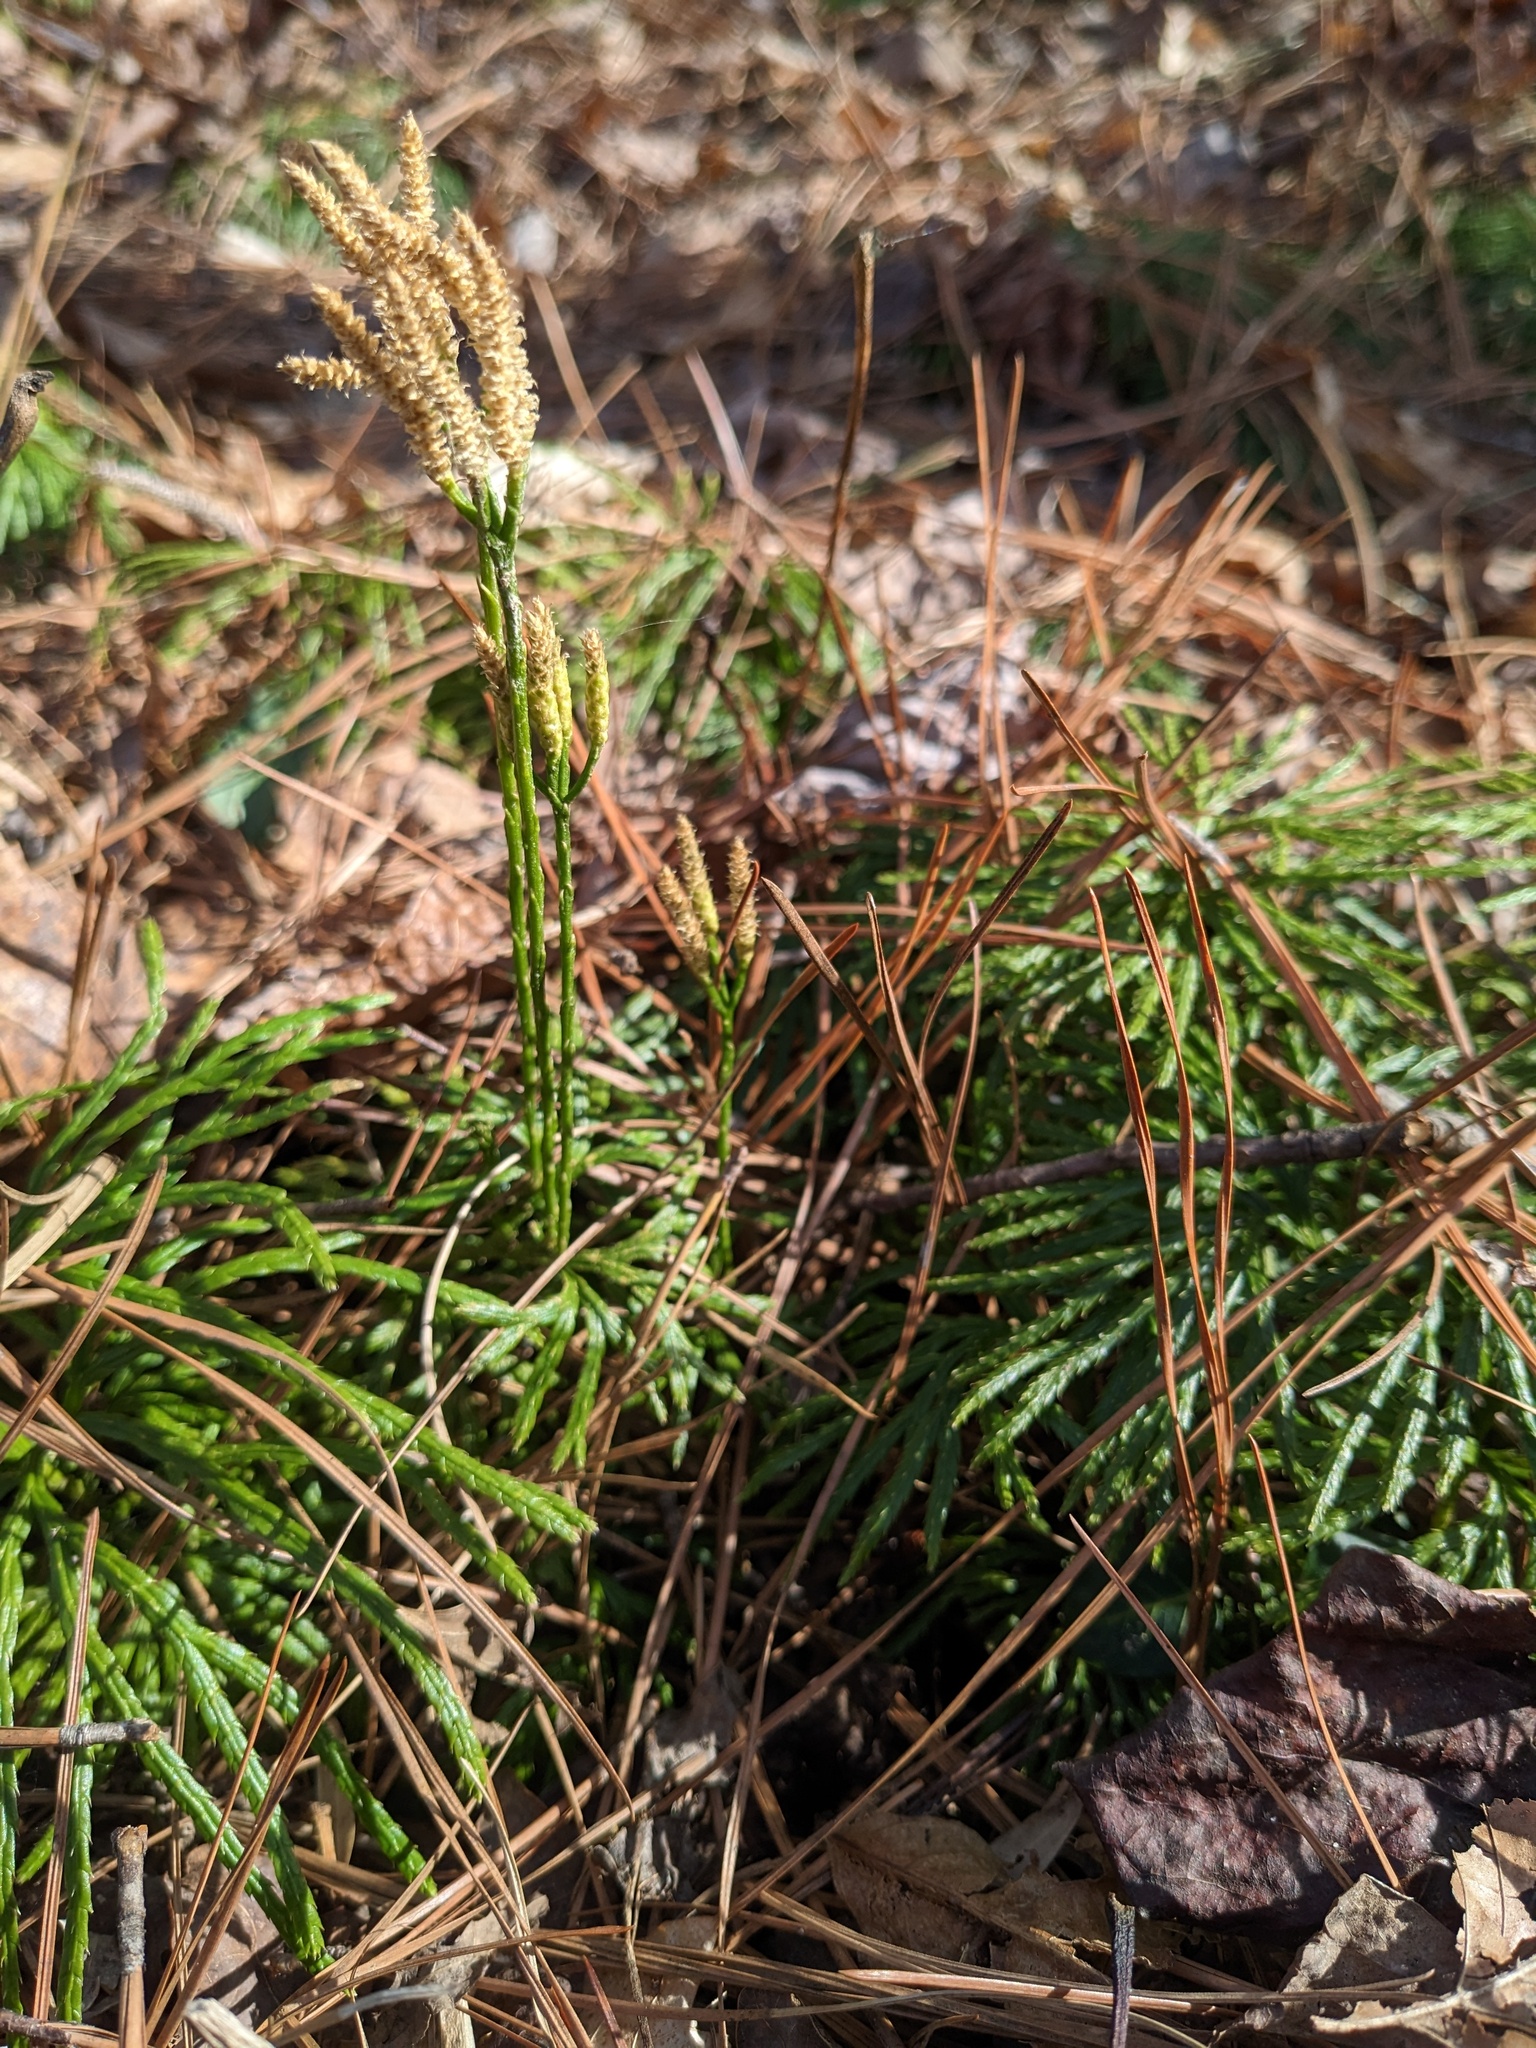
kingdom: Plantae
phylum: Tracheophyta
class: Lycopodiopsida
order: Lycopodiales
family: Lycopodiaceae
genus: Diphasiastrum
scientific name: Diphasiastrum digitatum
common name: Southern running-pine
